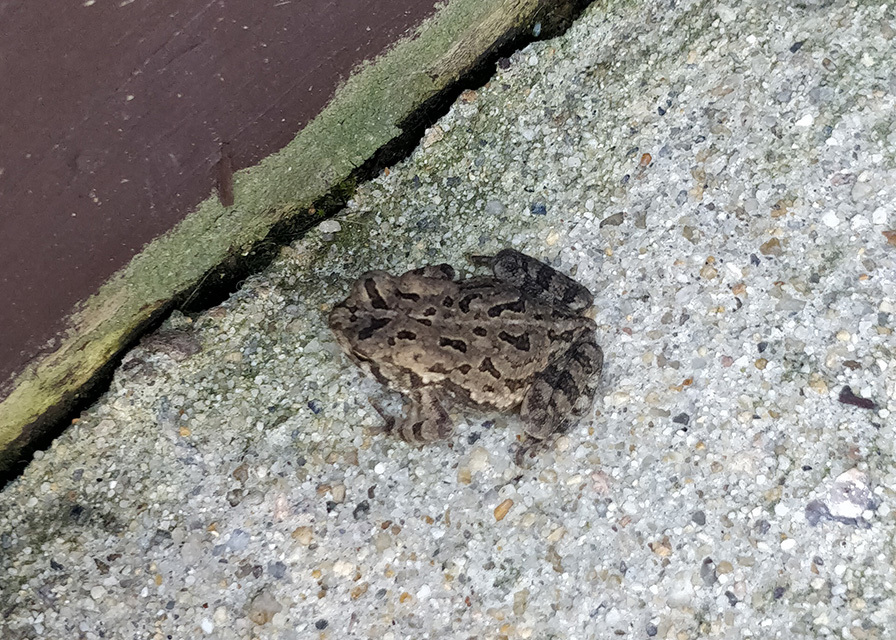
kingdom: Animalia
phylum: Chordata
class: Amphibia
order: Anura
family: Bufonidae
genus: Anaxyrus
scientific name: Anaxyrus fowleri
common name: Fowler's toad
